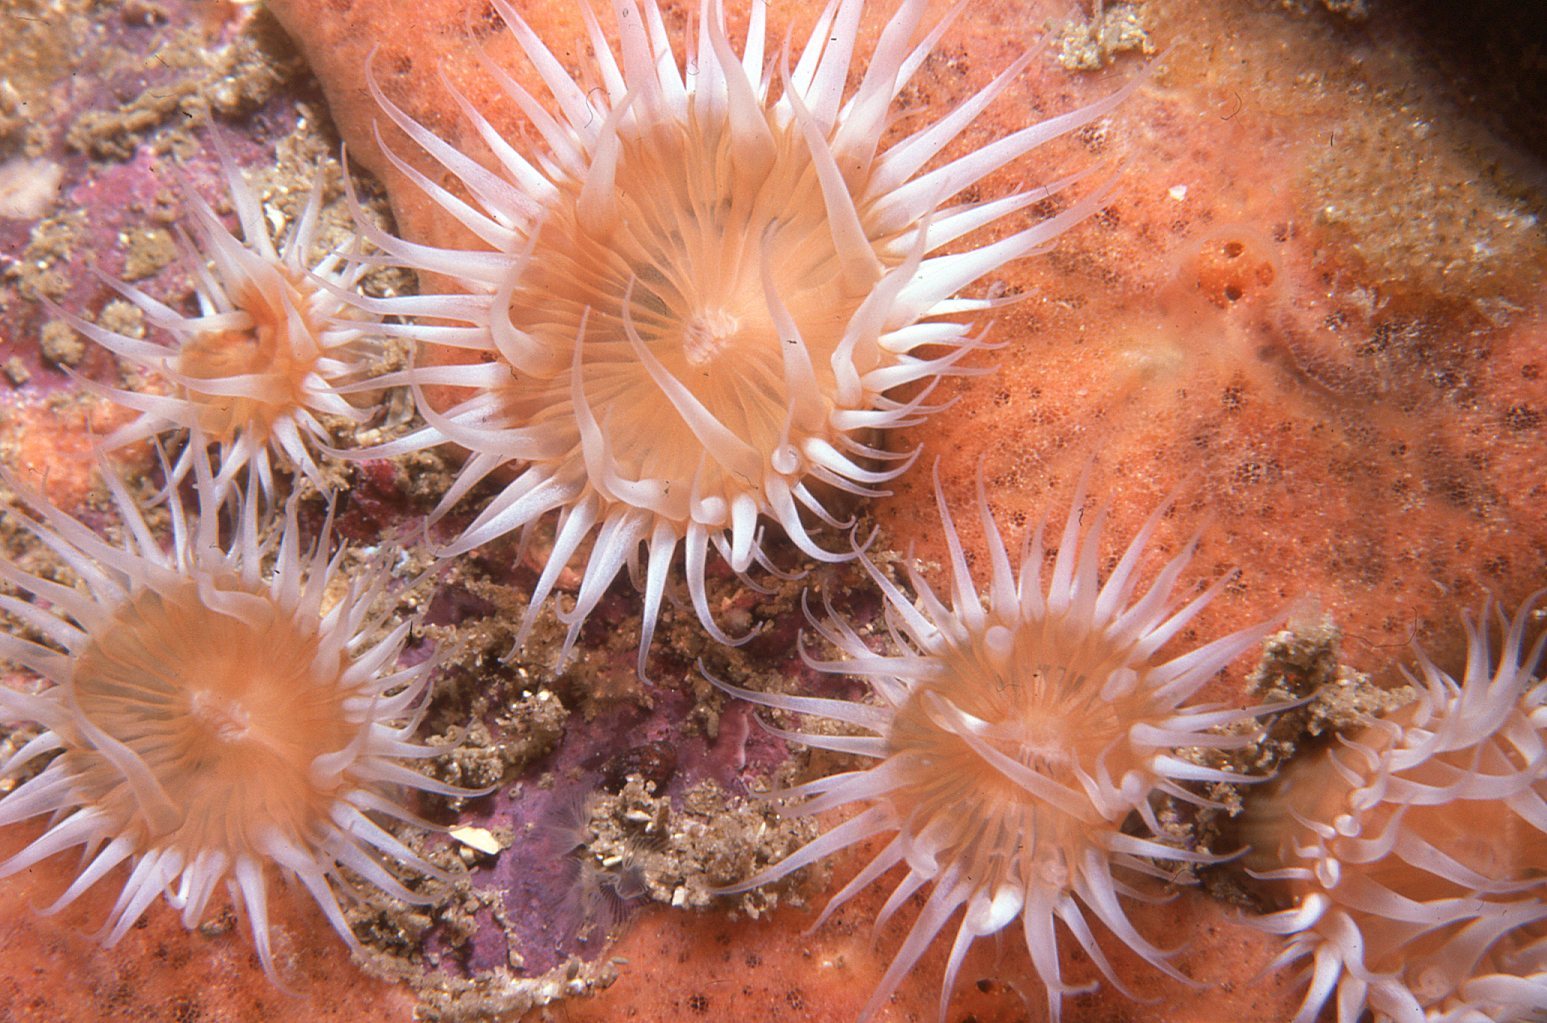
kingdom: Animalia
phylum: Cnidaria
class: Anthozoa
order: Actiniaria
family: Sagartiidae
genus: Anthothoe
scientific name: Anthothoe albocincta
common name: Orange striped anemone
